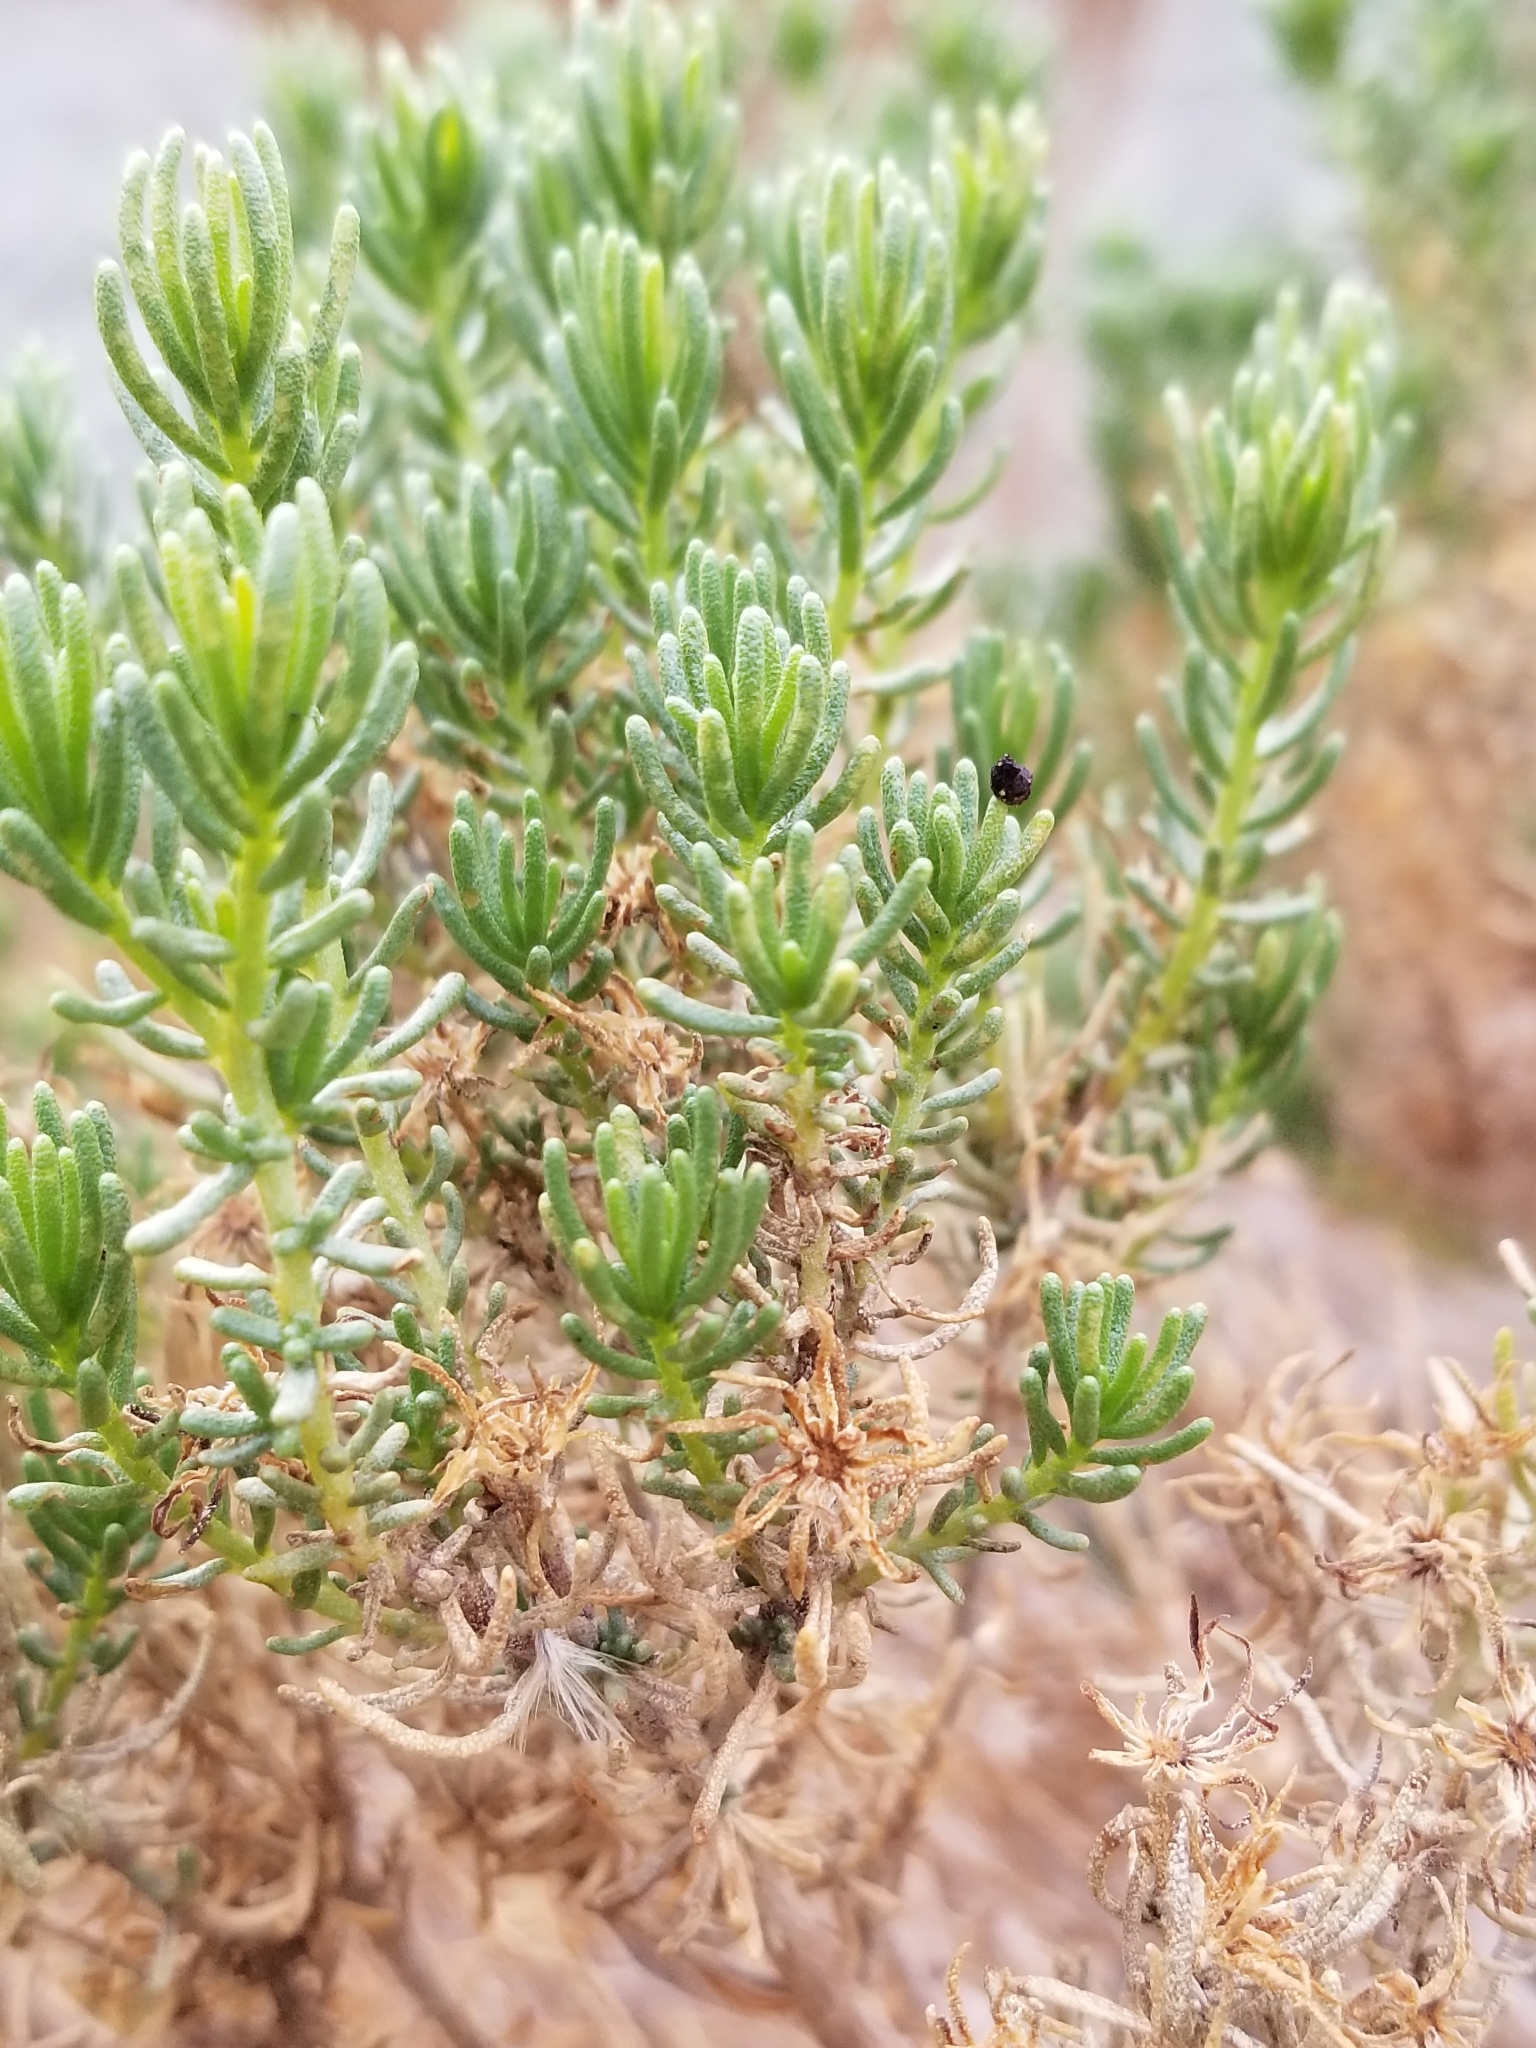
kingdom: Plantae
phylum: Tracheophyta
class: Magnoliopsida
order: Asterales
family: Asteraceae
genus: Peucephyllum
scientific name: Peucephyllum schottii
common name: Pygmy-cedar
